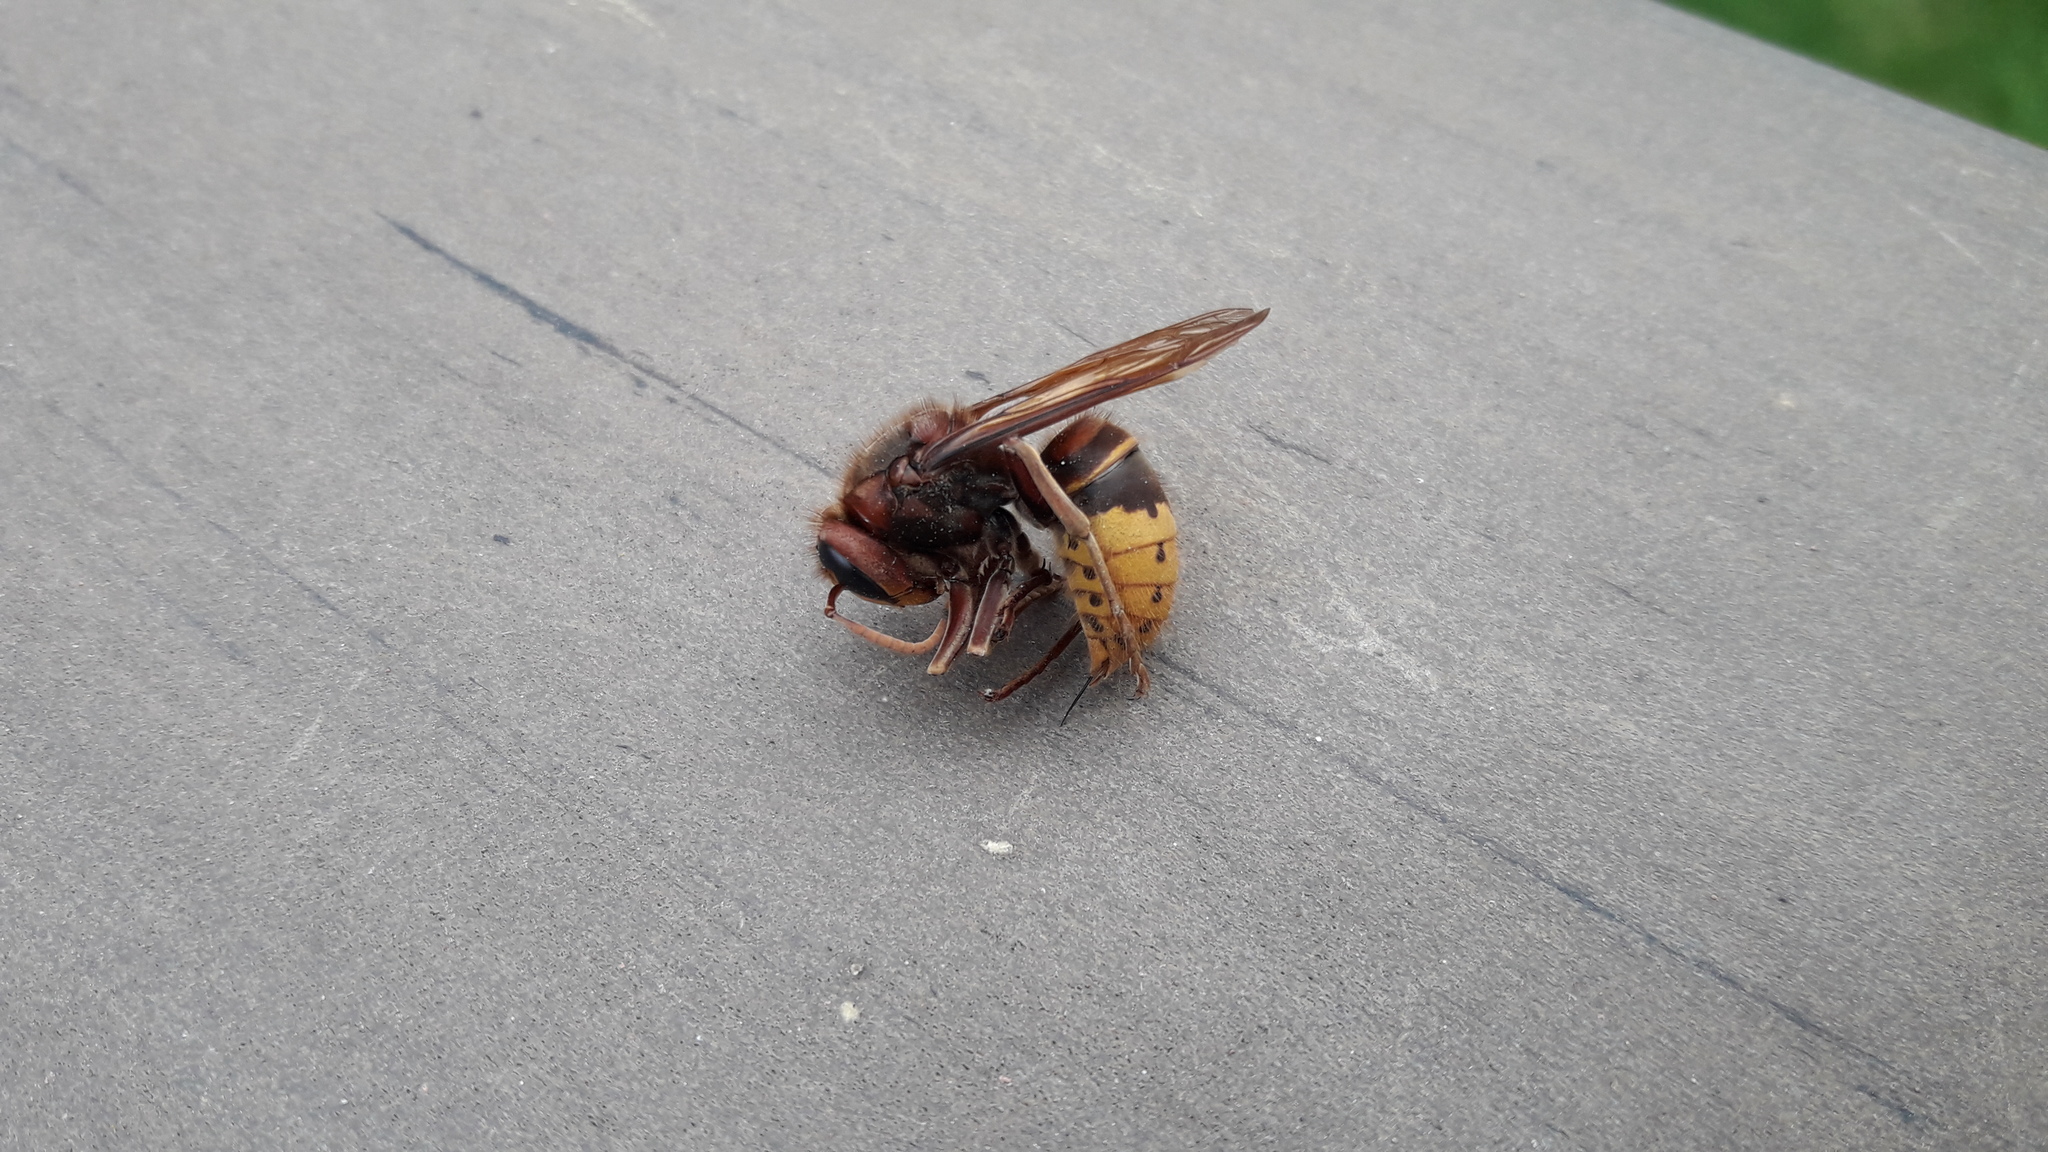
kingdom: Animalia
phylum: Arthropoda
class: Insecta
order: Hymenoptera
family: Vespidae
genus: Vespa
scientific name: Vespa crabro
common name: Hornet
